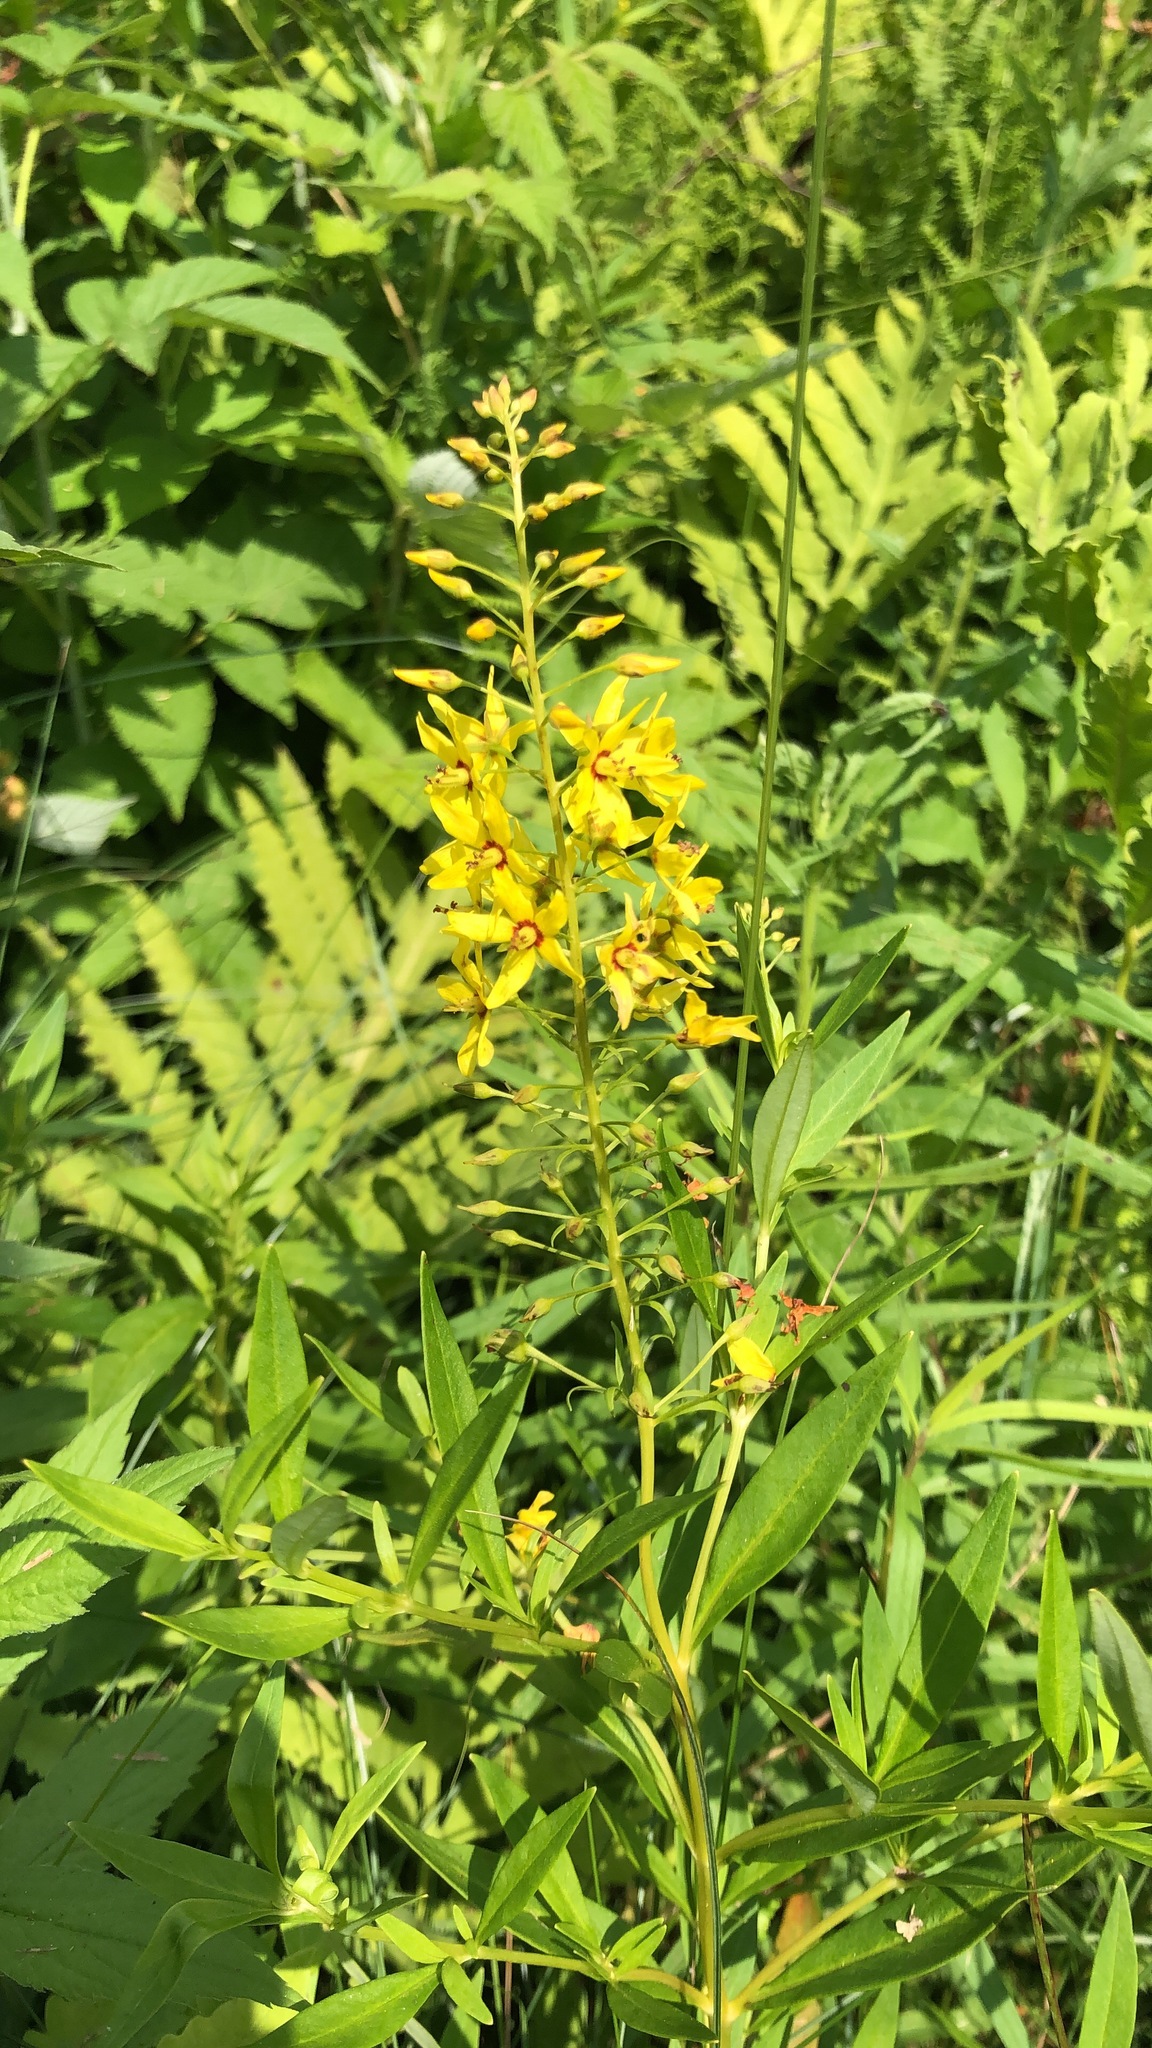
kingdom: Plantae
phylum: Tracheophyta
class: Magnoliopsida
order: Ericales
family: Primulaceae
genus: Lysimachia
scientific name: Lysimachia terrestris
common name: Lake loosestrife
